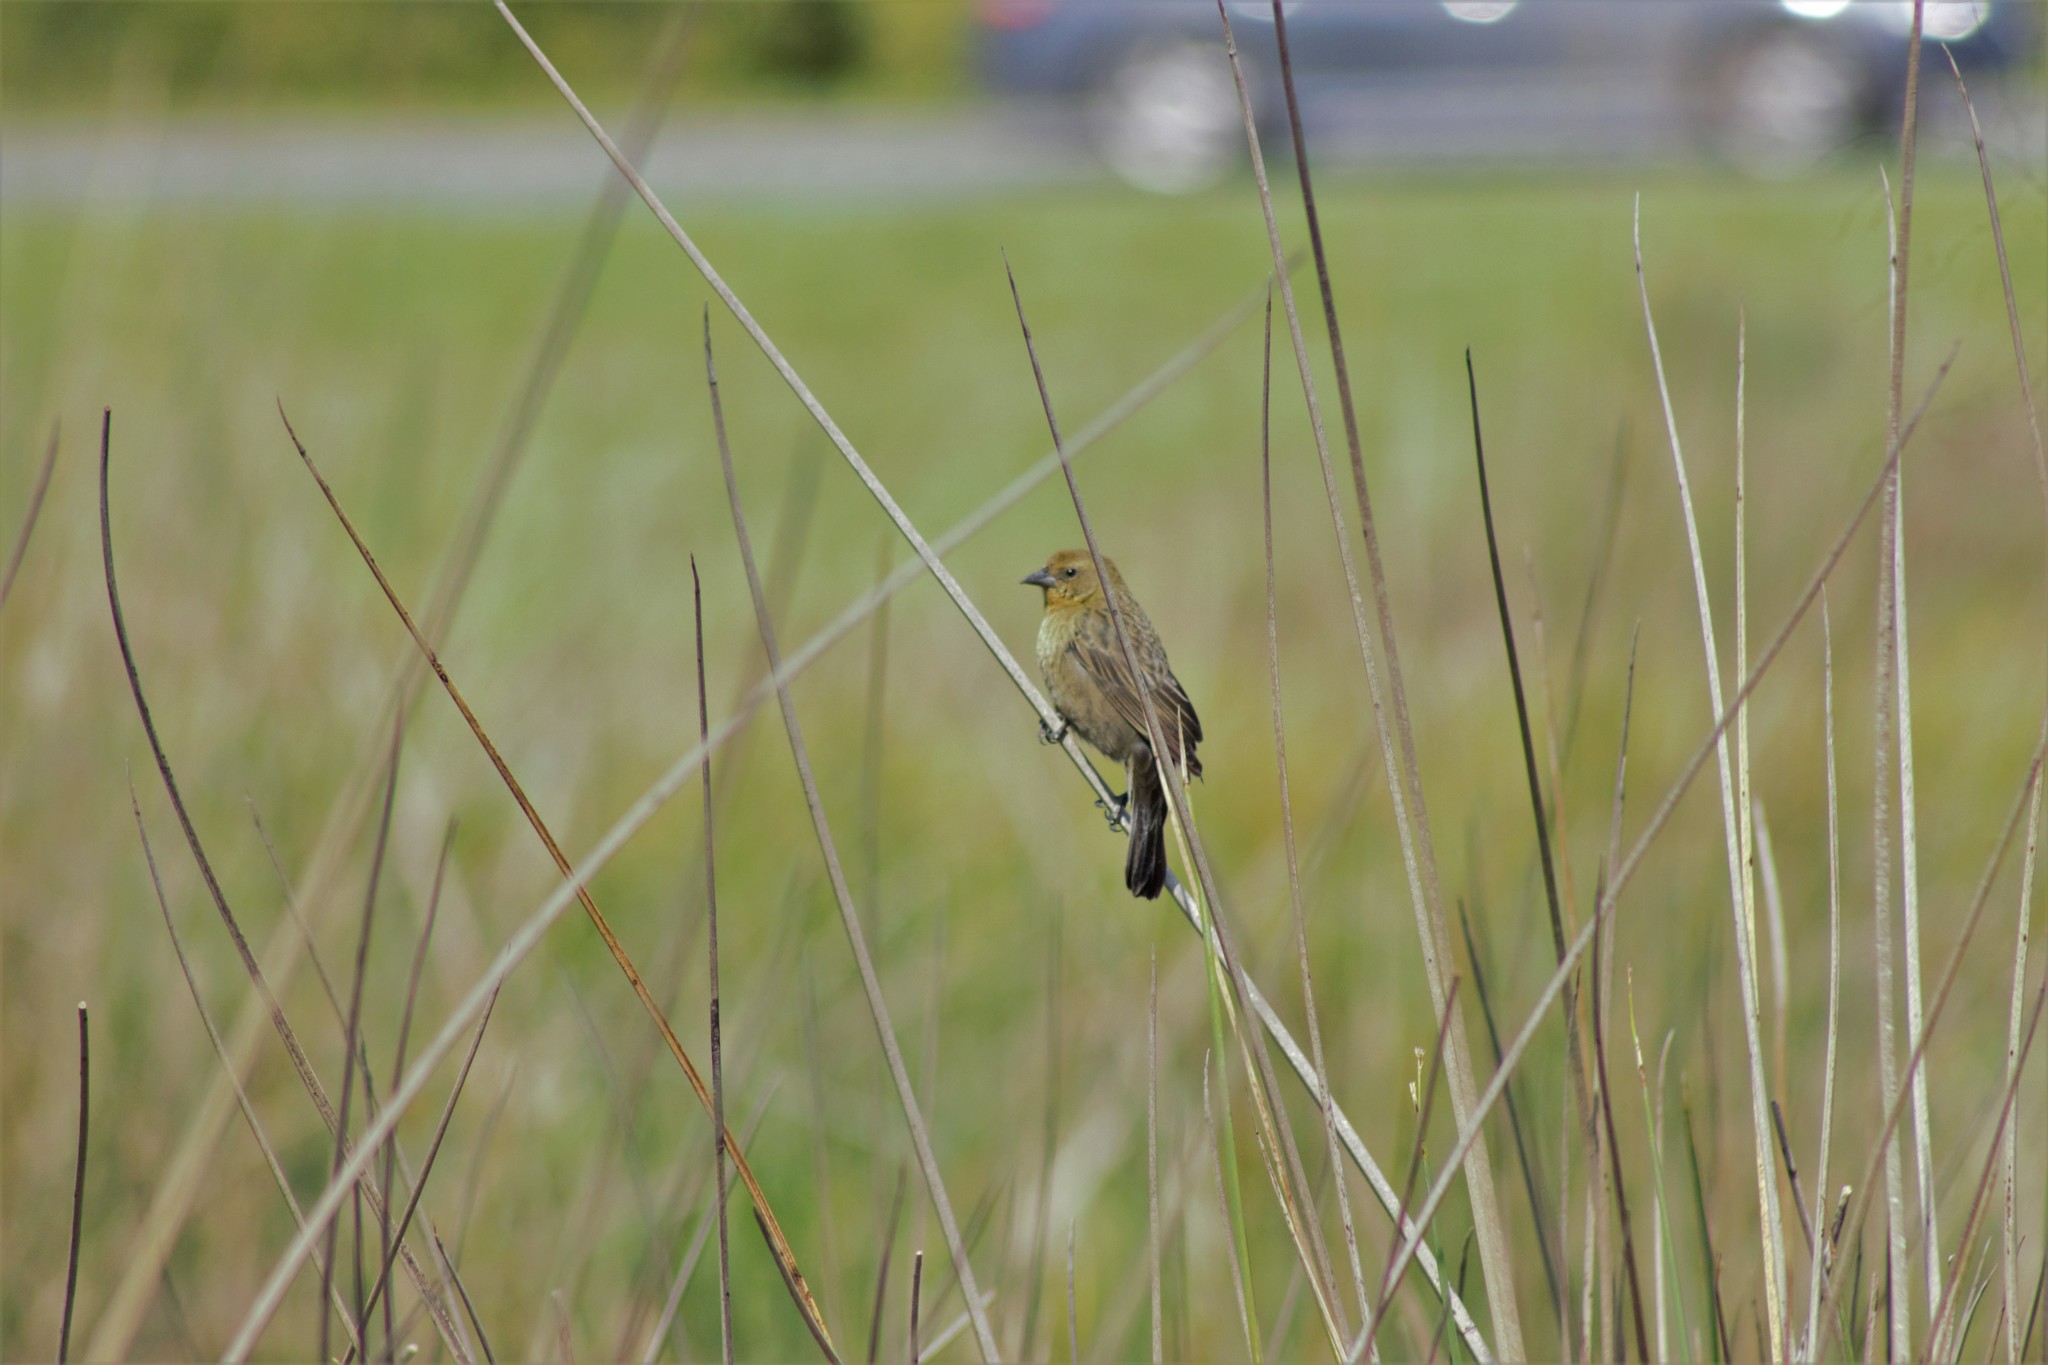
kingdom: Animalia
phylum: Chordata
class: Aves
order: Passeriformes
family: Icteridae
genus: Chrysomus
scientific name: Chrysomus ruficapillus
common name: Chestnut-capped blackbird
